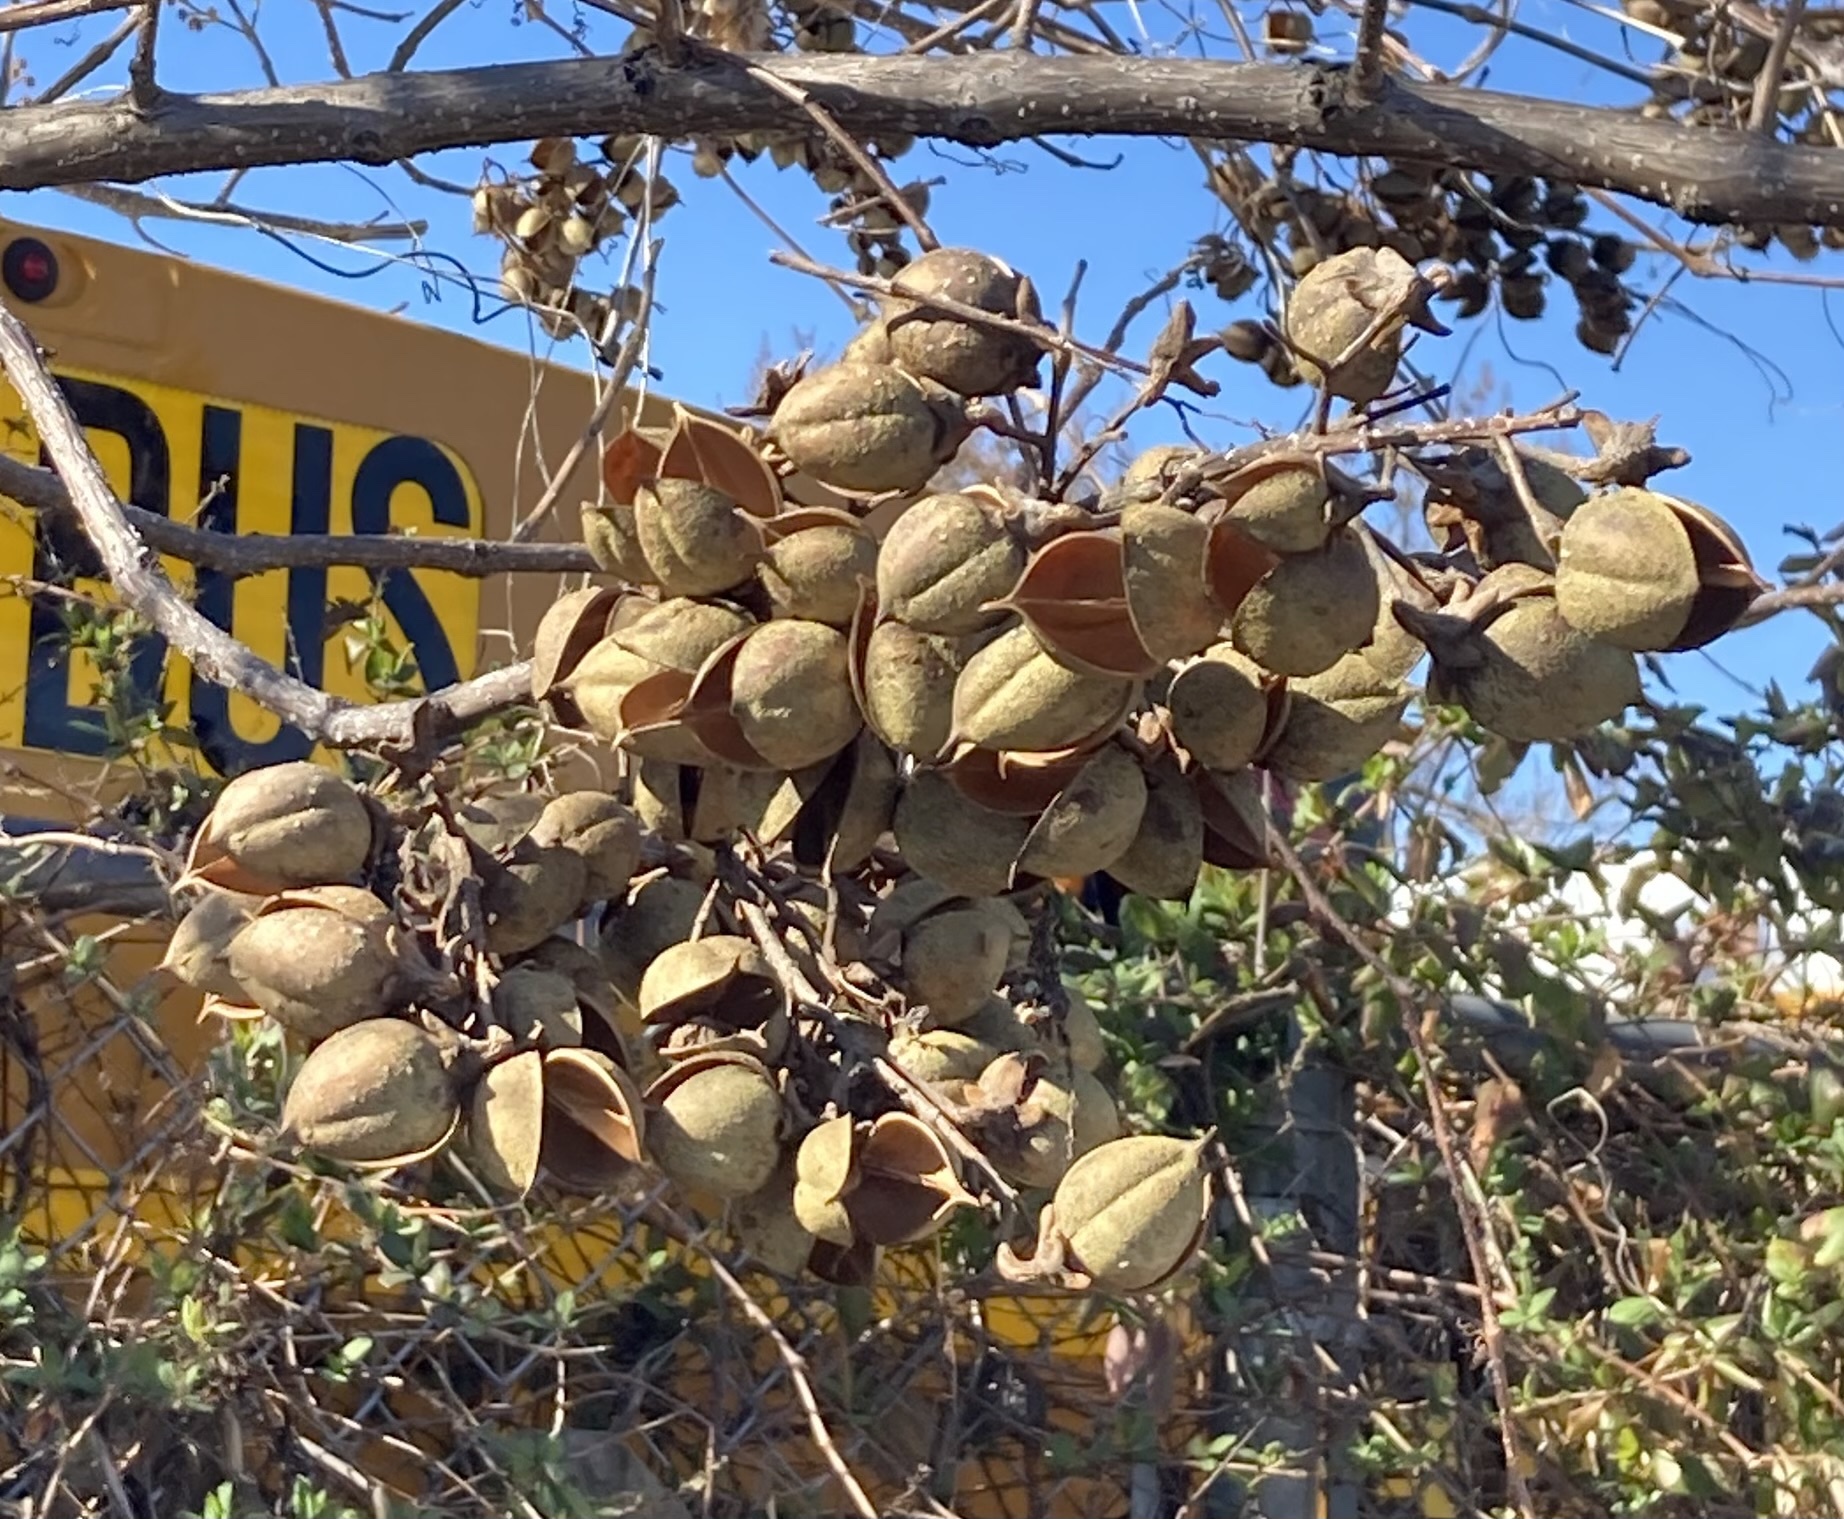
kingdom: Plantae
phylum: Tracheophyta
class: Magnoliopsida
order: Lamiales
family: Paulowniaceae
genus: Paulownia
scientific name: Paulownia tomentosa
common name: Foxglove-tree
